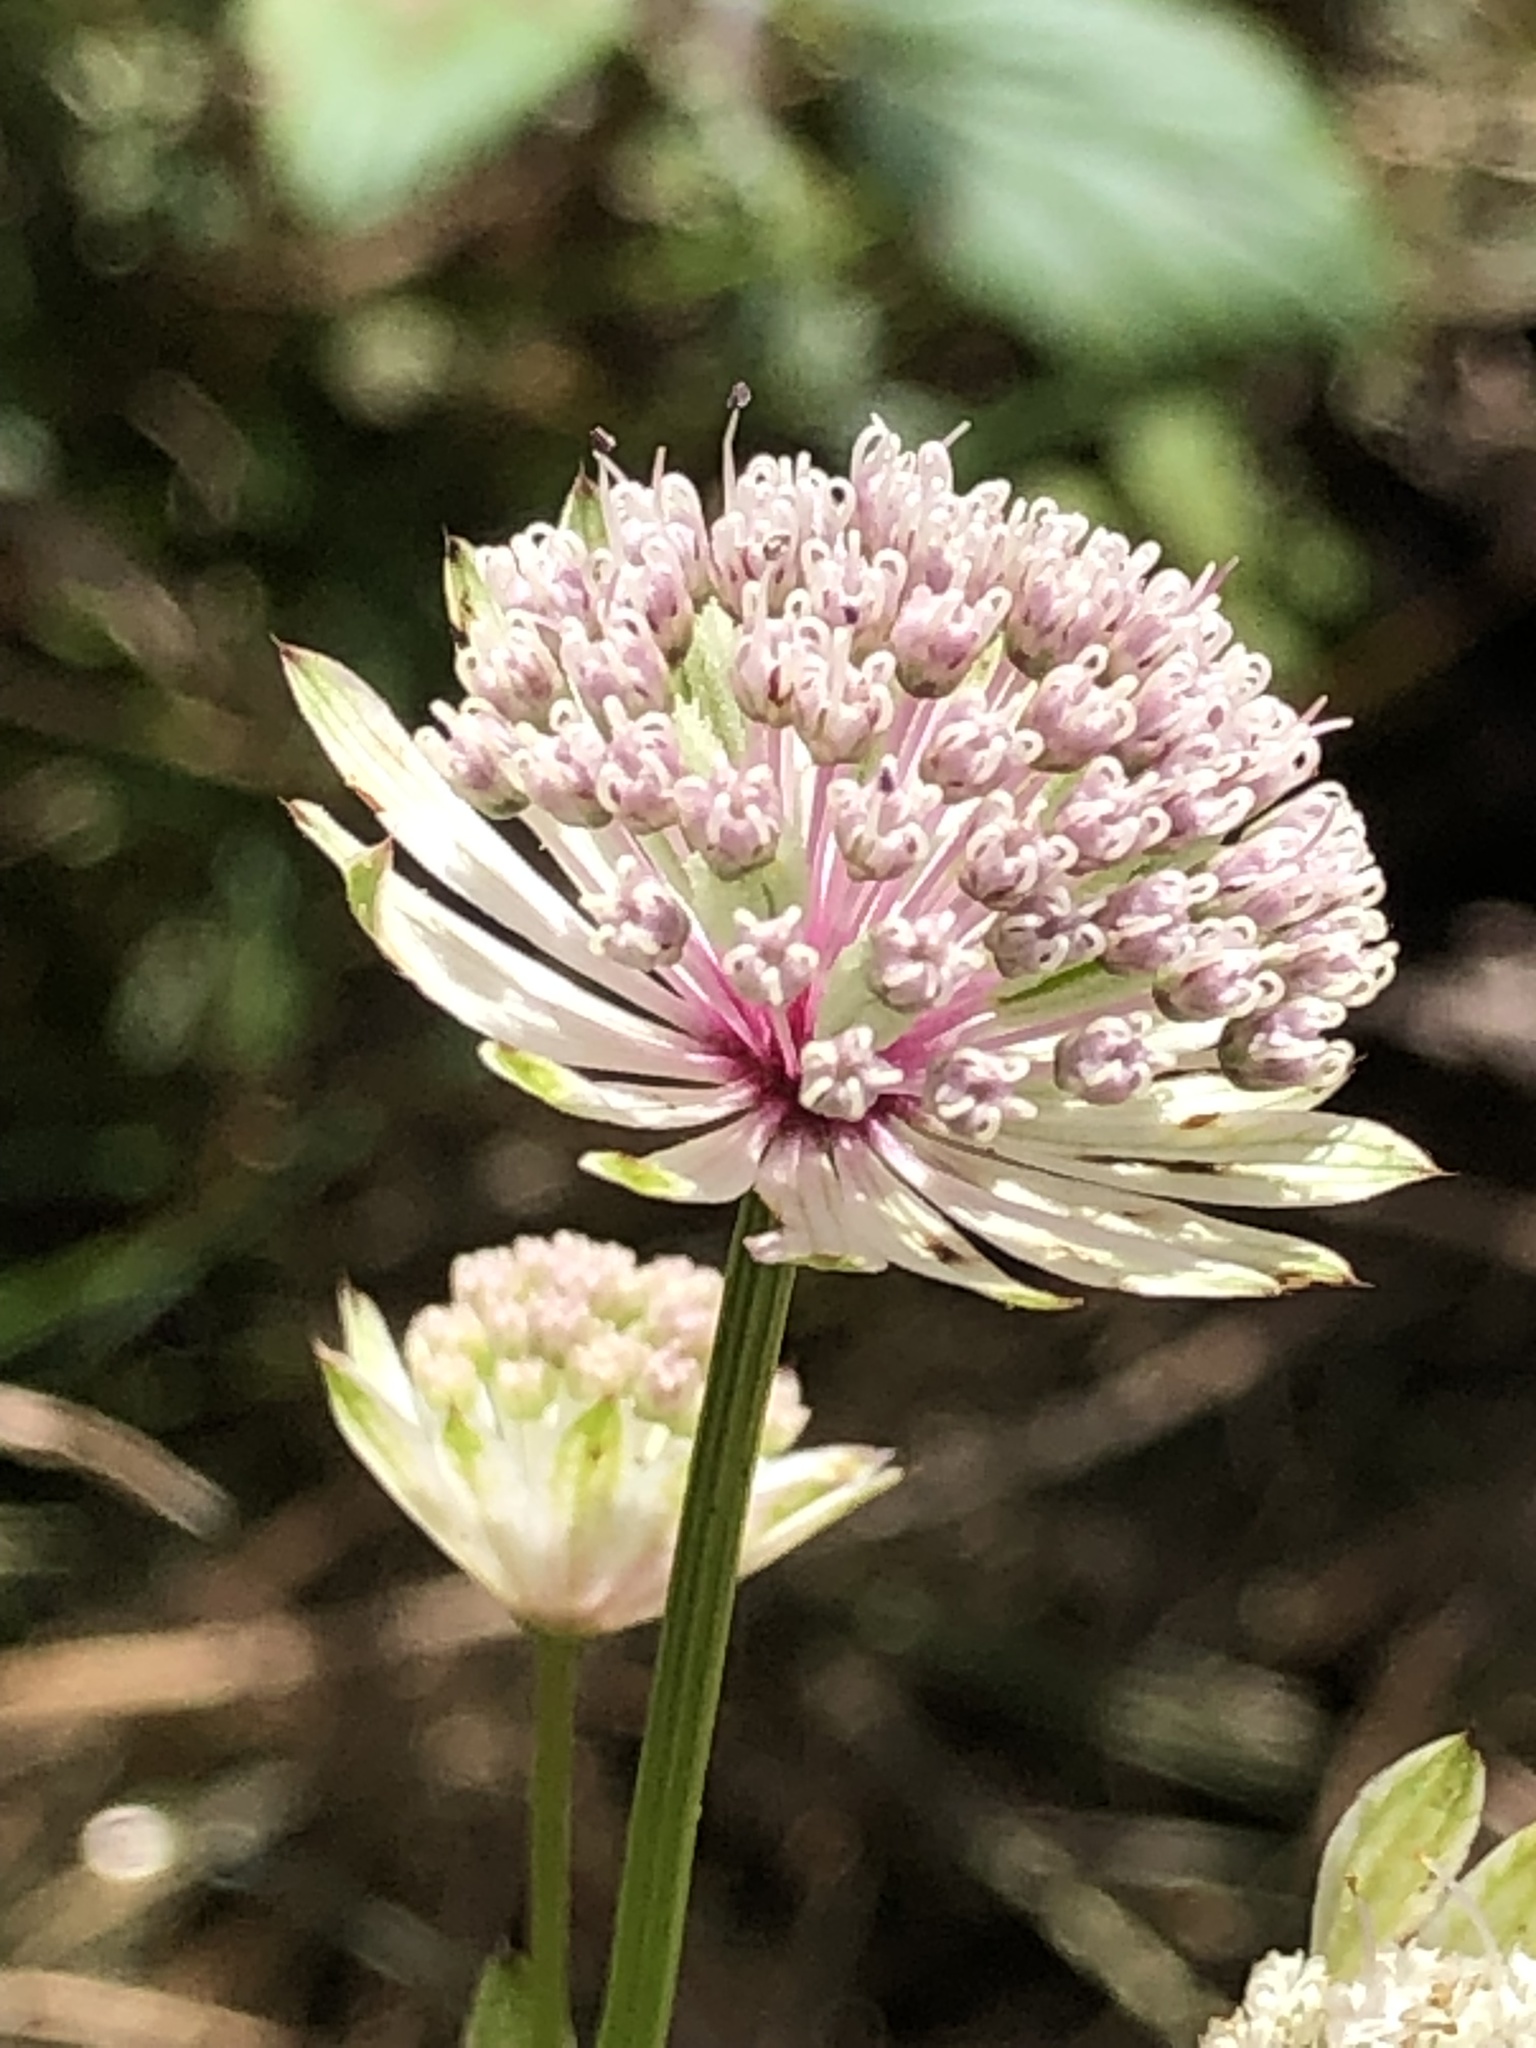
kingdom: Plantae
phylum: Tracheophyta
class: Magnoliopsida
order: Apiales
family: Apiaceae
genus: Astrantia
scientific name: Astrantia major
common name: Greater masterwort
